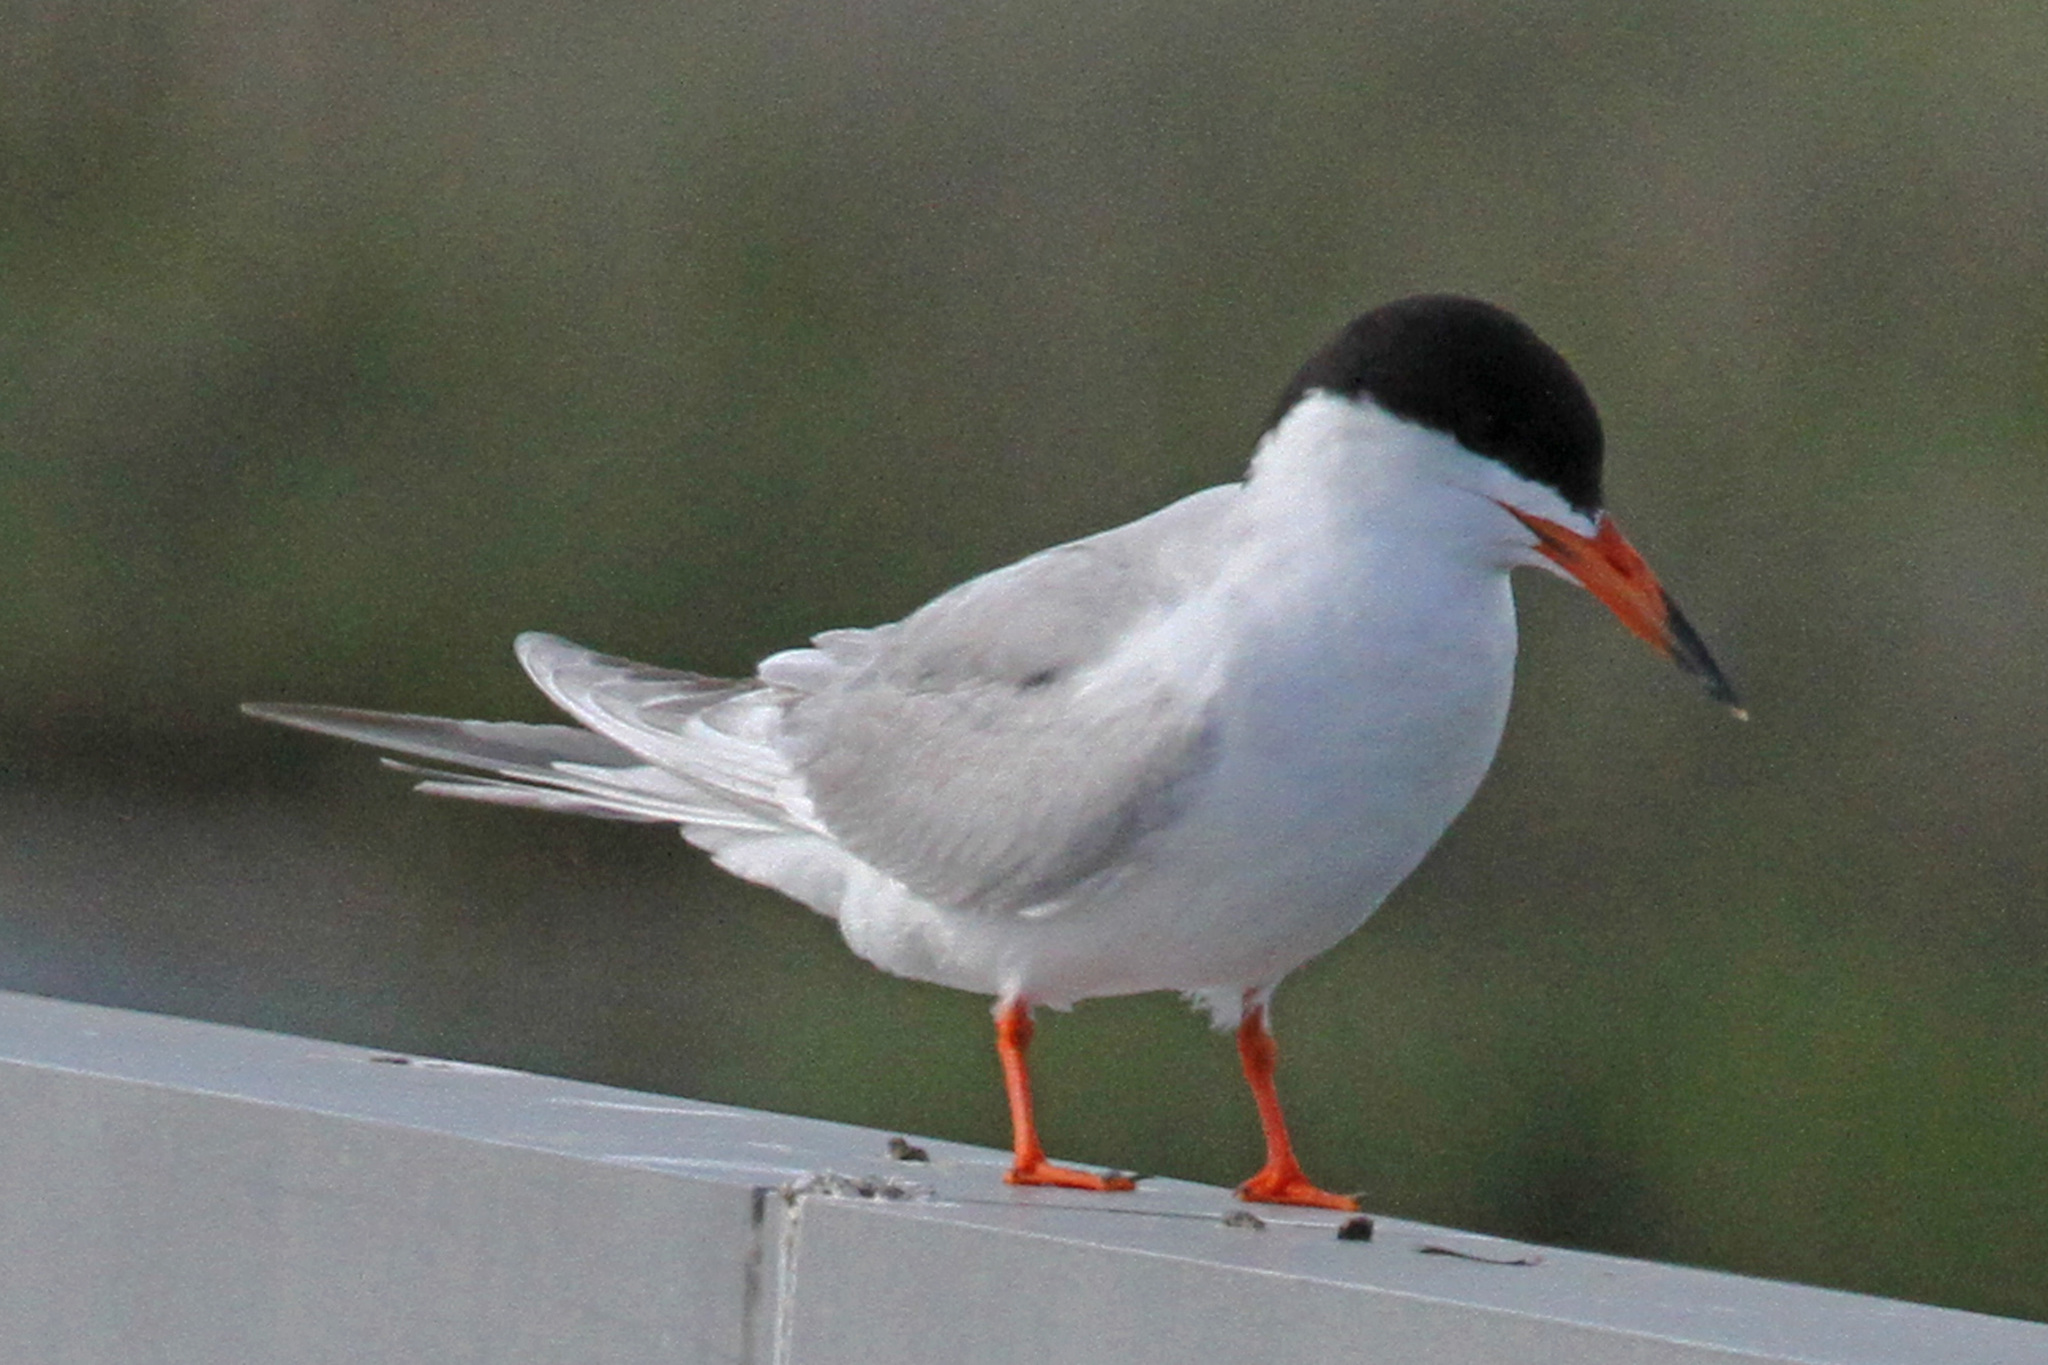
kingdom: Animalia
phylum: Chordata
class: Aves
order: Charadriiformes
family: Laridae
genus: Sterna
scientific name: Sterna forsteri
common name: Forster's tern
